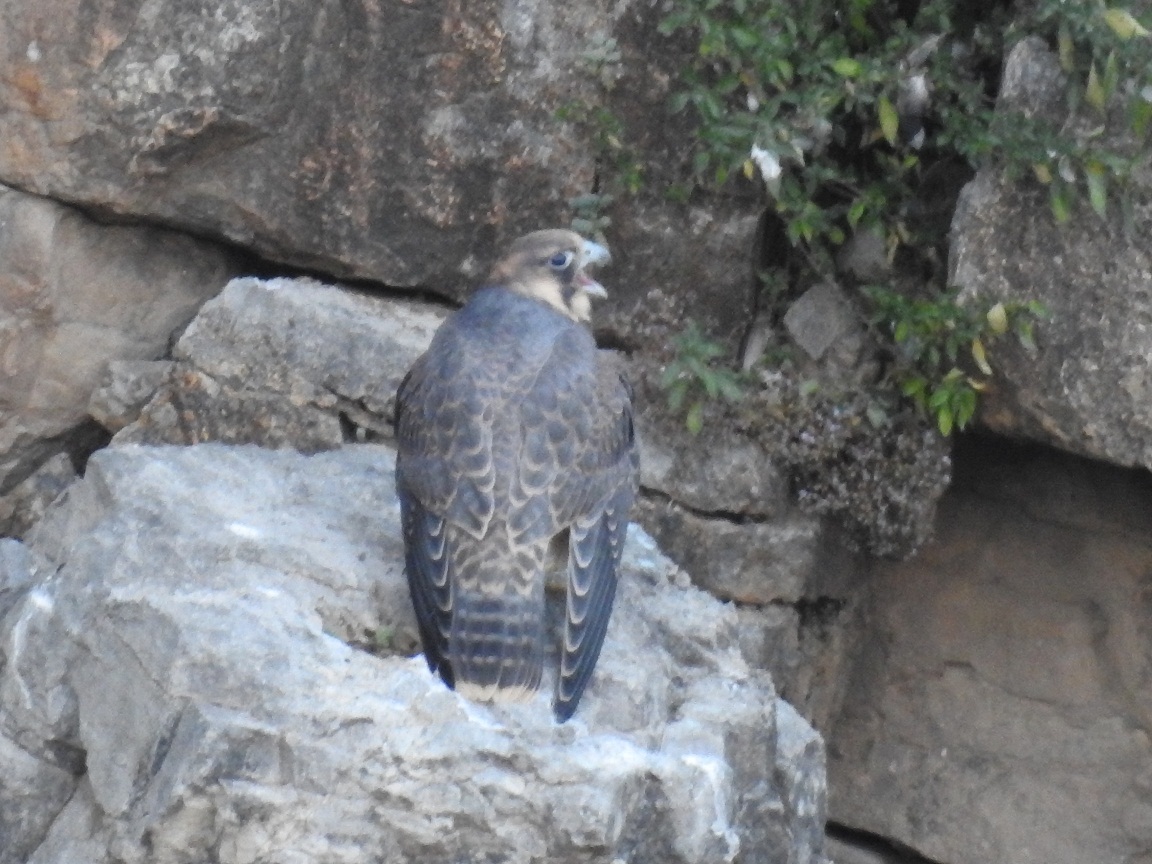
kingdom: Animalia
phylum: Chordata
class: Aves
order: Falconiformes
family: Falconidae
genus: Falco
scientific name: Falco peregrinus
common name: Peregrine falcon
